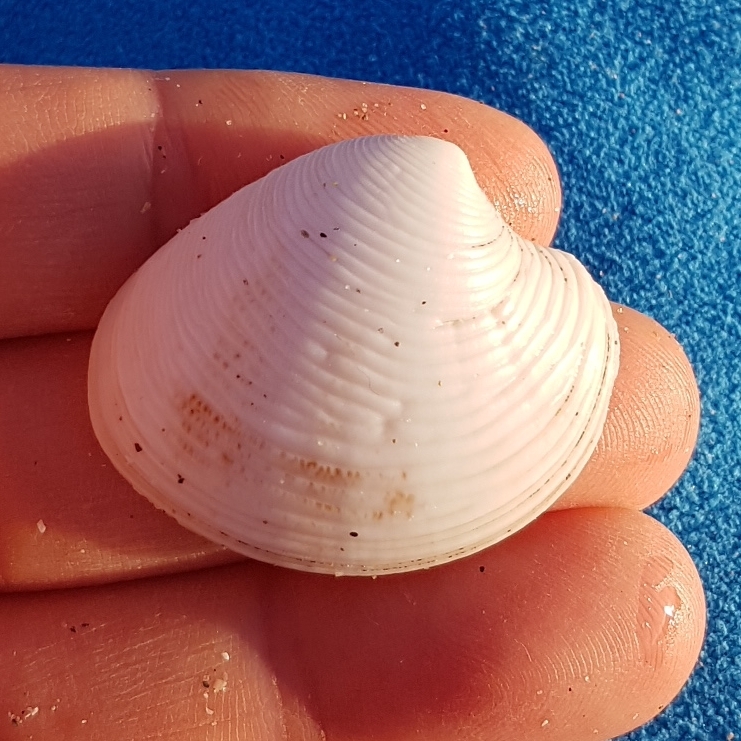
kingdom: Animalia
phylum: Mollusca
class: Bivalvia
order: Venerida
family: Veneridae
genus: Chamelea
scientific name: Chamelea gallina
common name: Chicken venus
